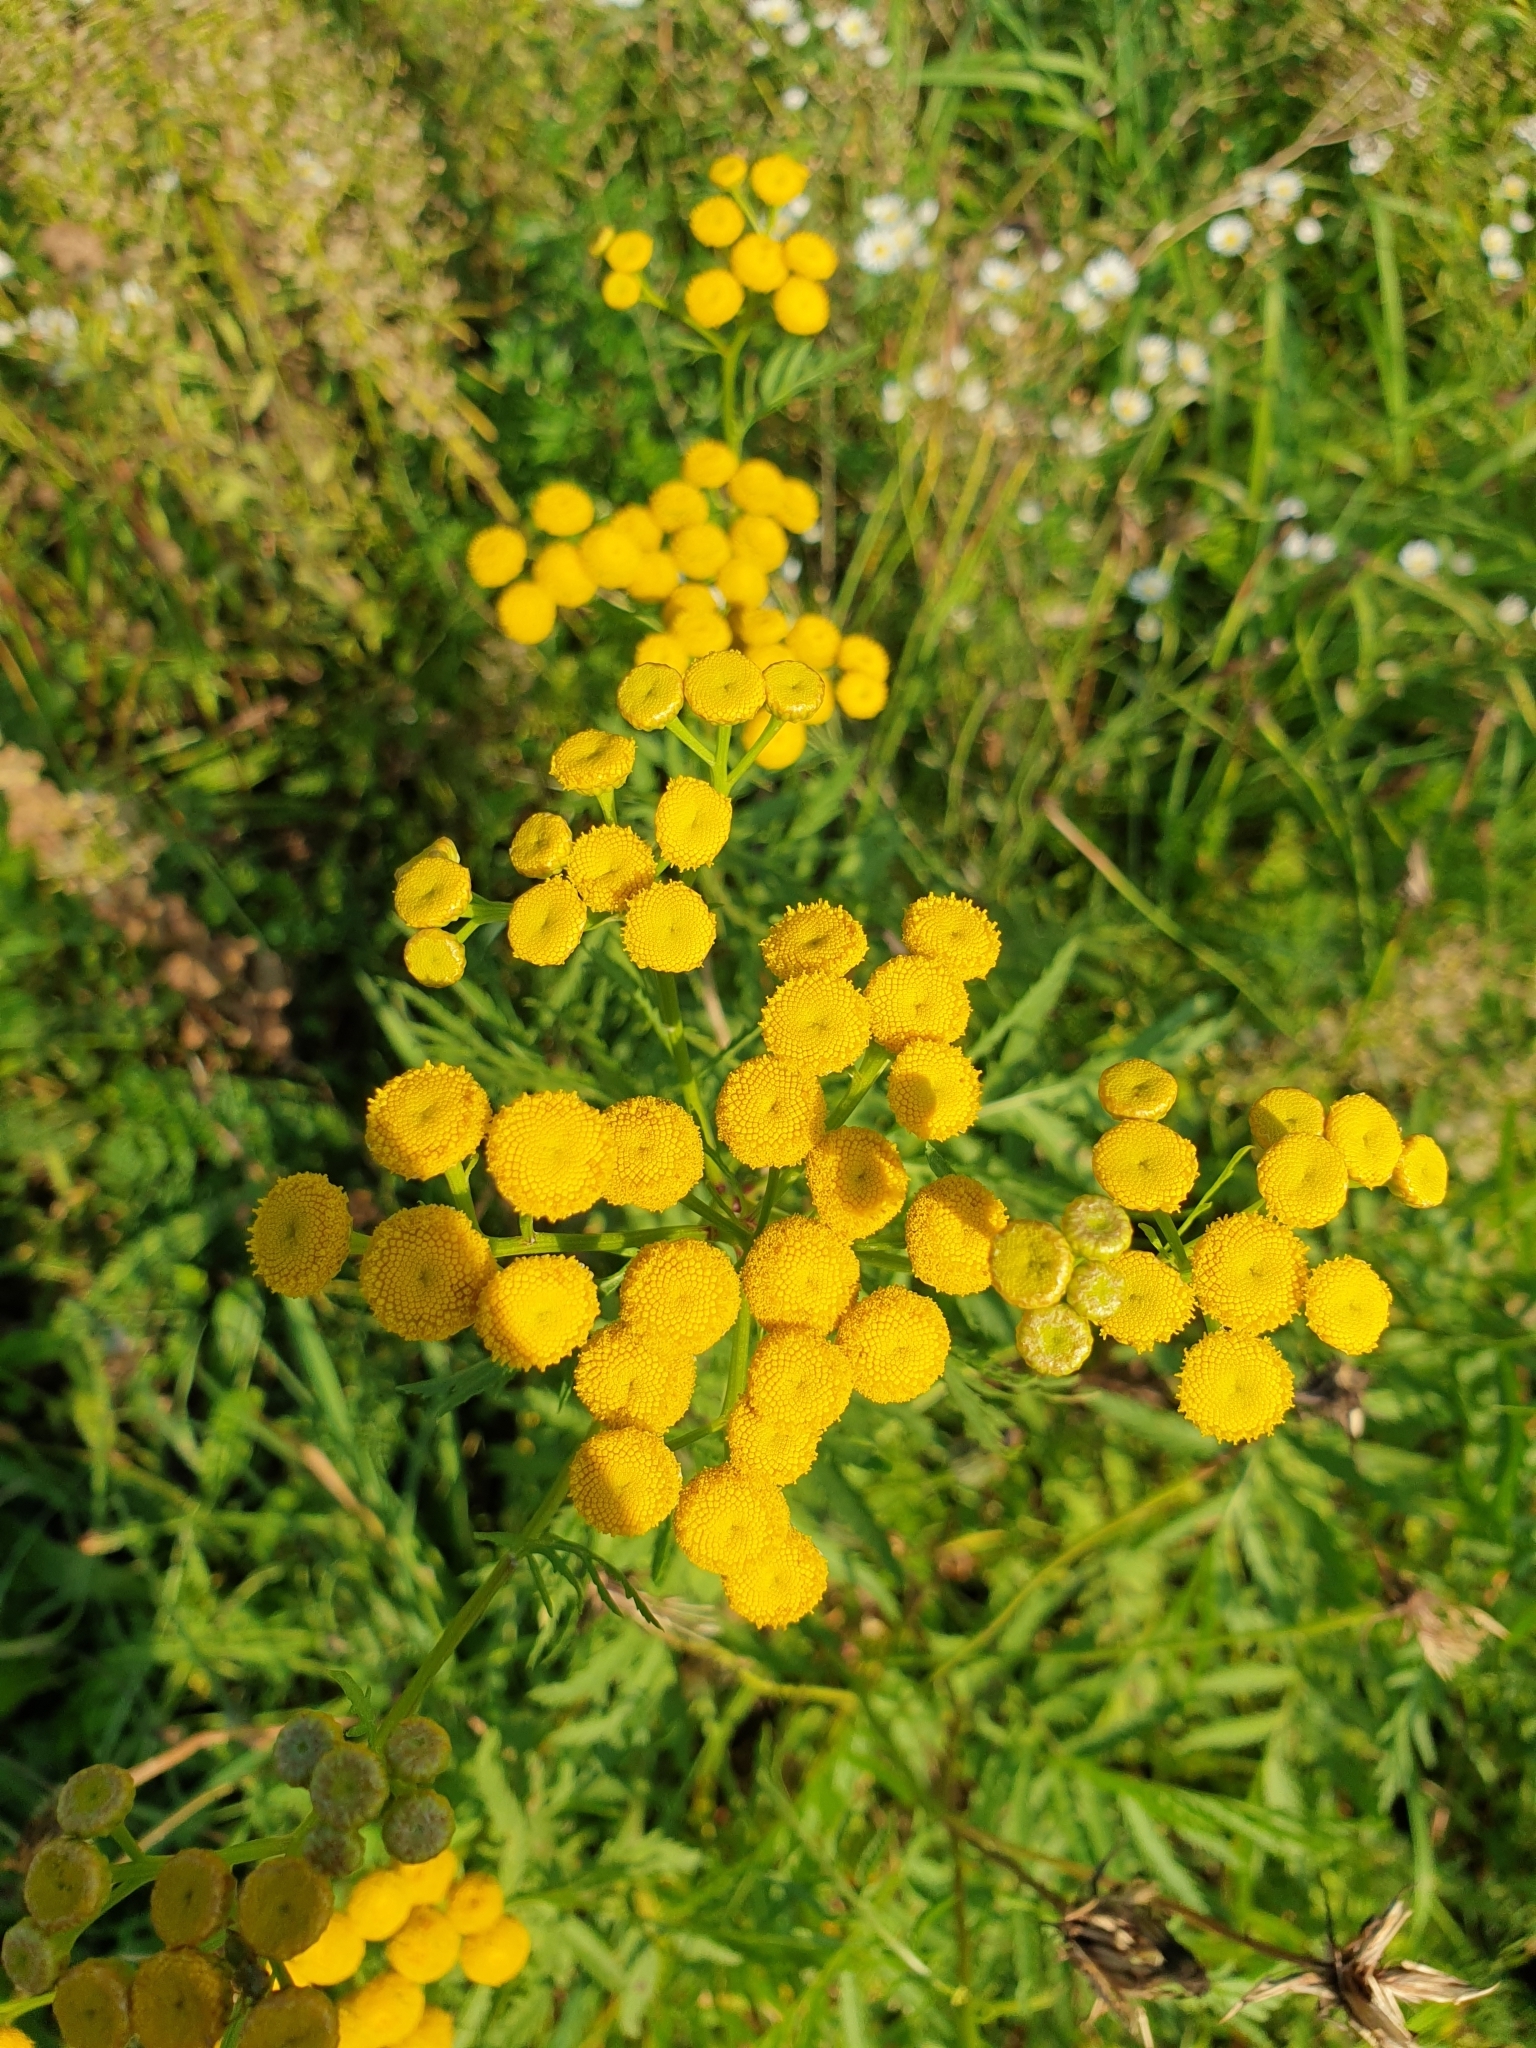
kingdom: Plantae
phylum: Tracheophyta
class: Magnoliopsida
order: Asterales
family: Asteraceae
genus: Tanacetum
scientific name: Tanacetum vulgare
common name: Common tansy
